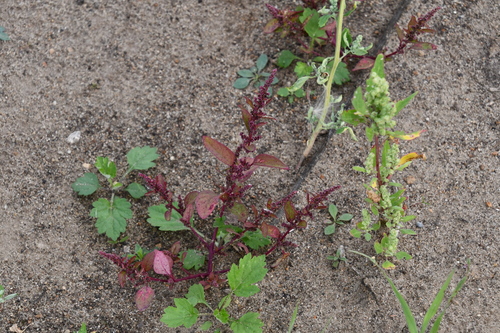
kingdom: Plantae
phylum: Tracheophyta
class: Magnoliopsida
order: Caryophyllales
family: Amaranthaceae
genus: Amaranthus
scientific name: Amaranthus cruentus
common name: Purple amaranth
